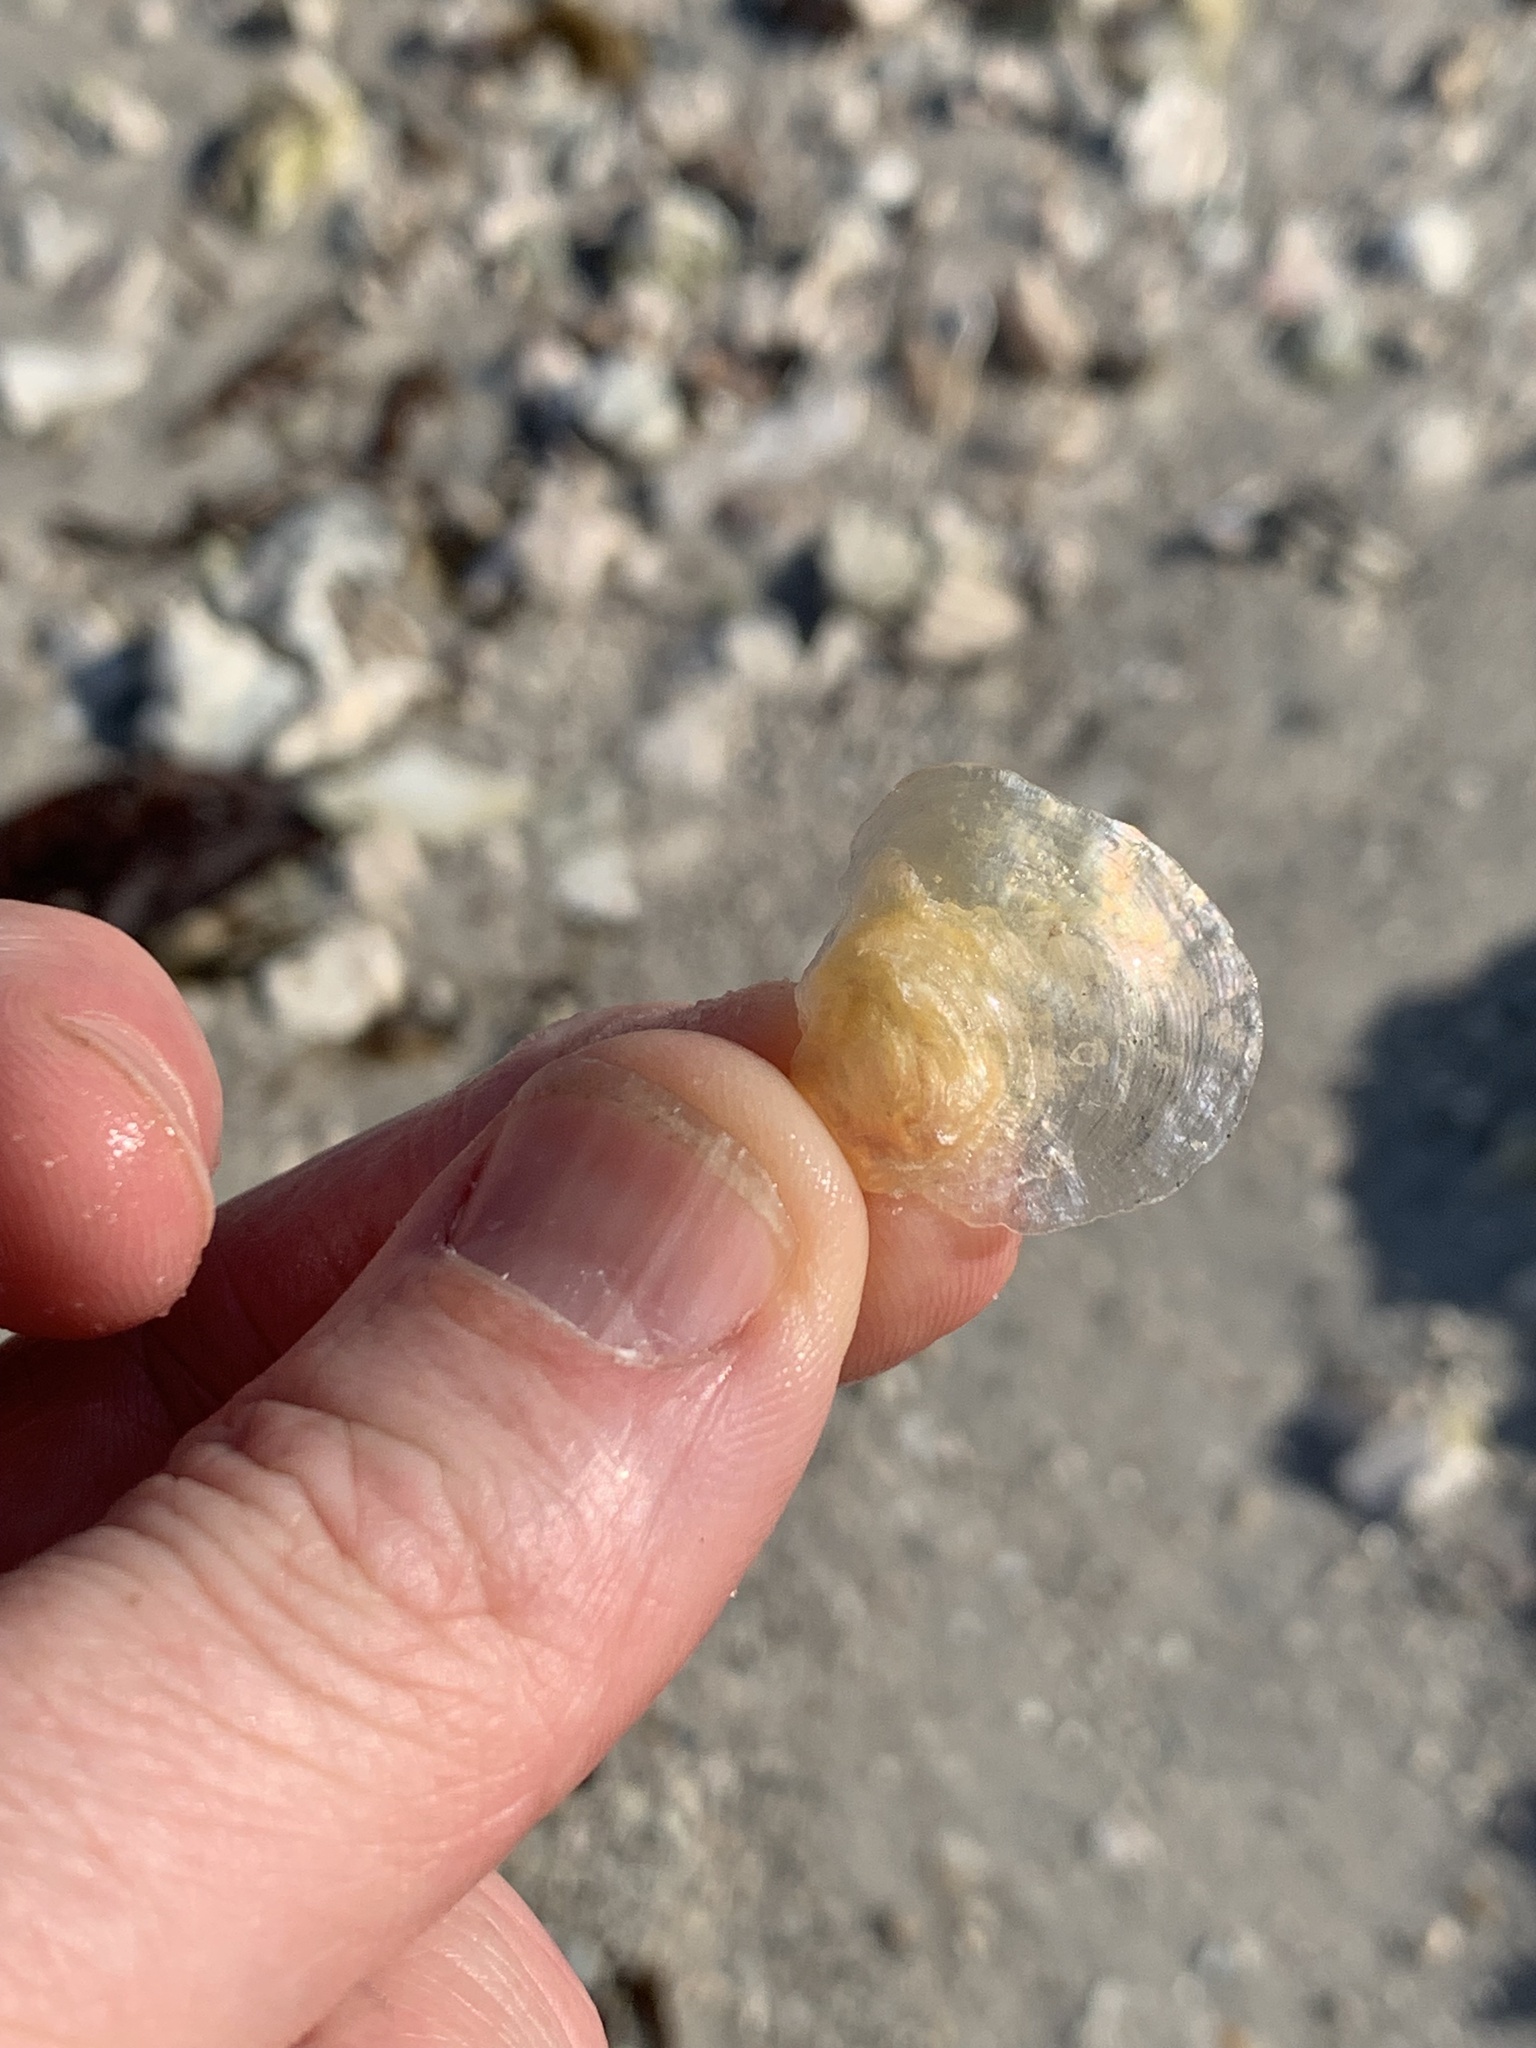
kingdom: Animalia
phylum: Mollusca
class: Bivalvia
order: Pectinida
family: Anomiidae
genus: Anomia
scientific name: Anomia simplex
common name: Common jingle shell
